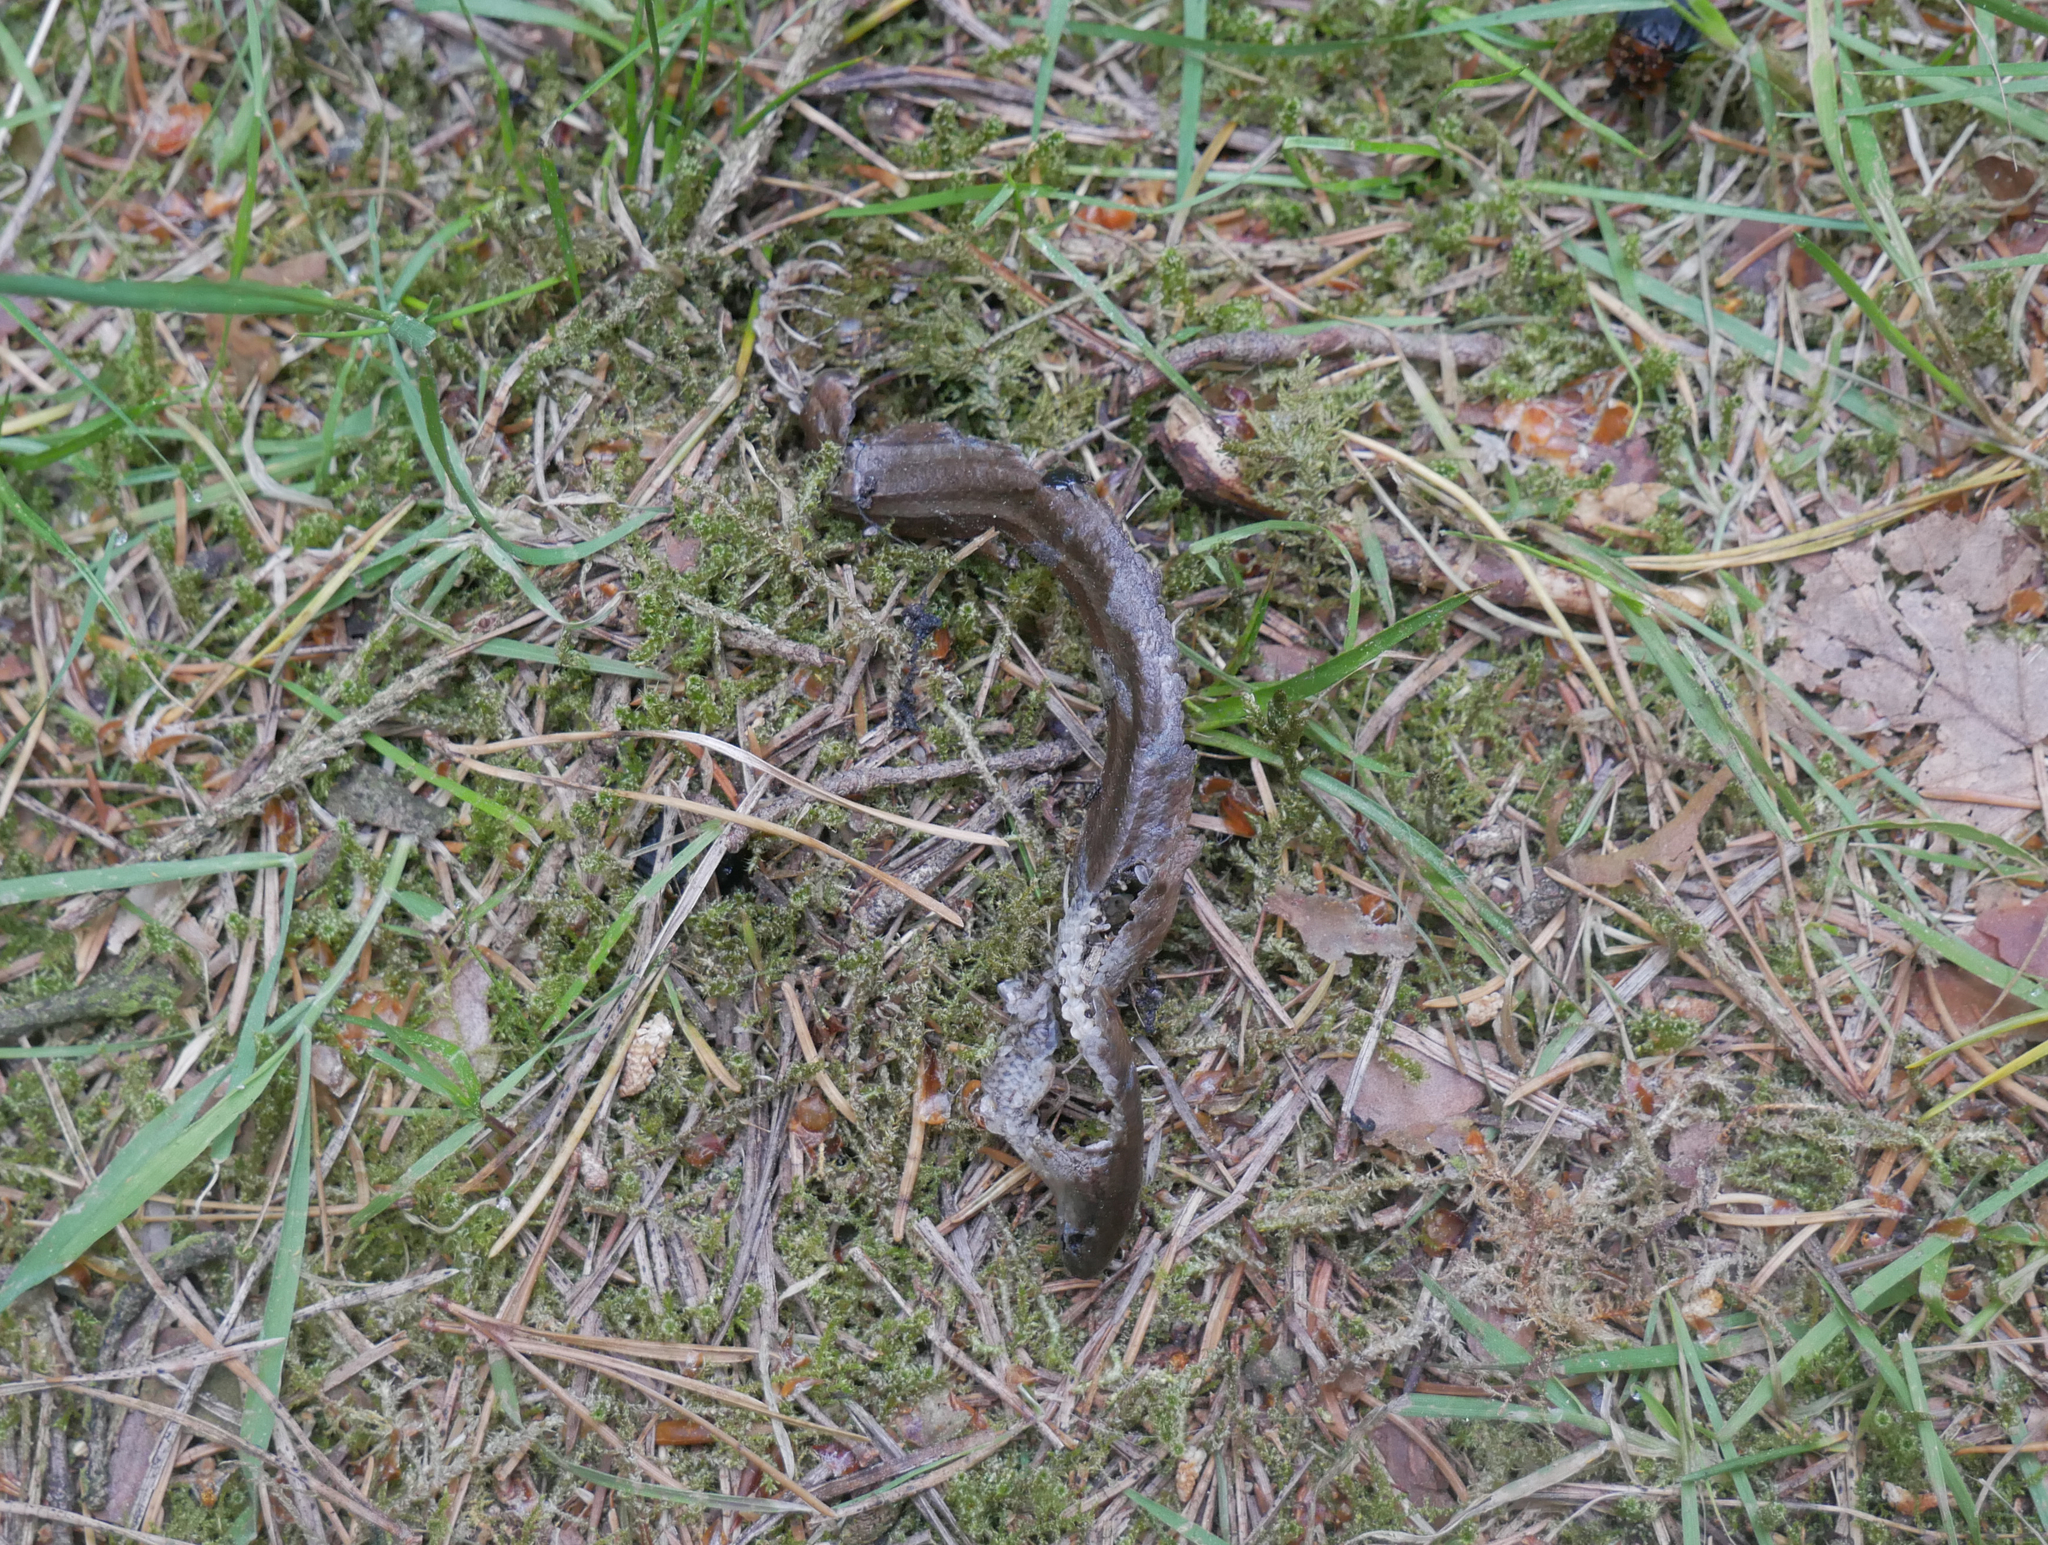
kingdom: Animalia
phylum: Chordata
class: Squamata
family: Anguidae
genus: Anguis
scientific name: Anguis fragilis
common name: Slow worm
